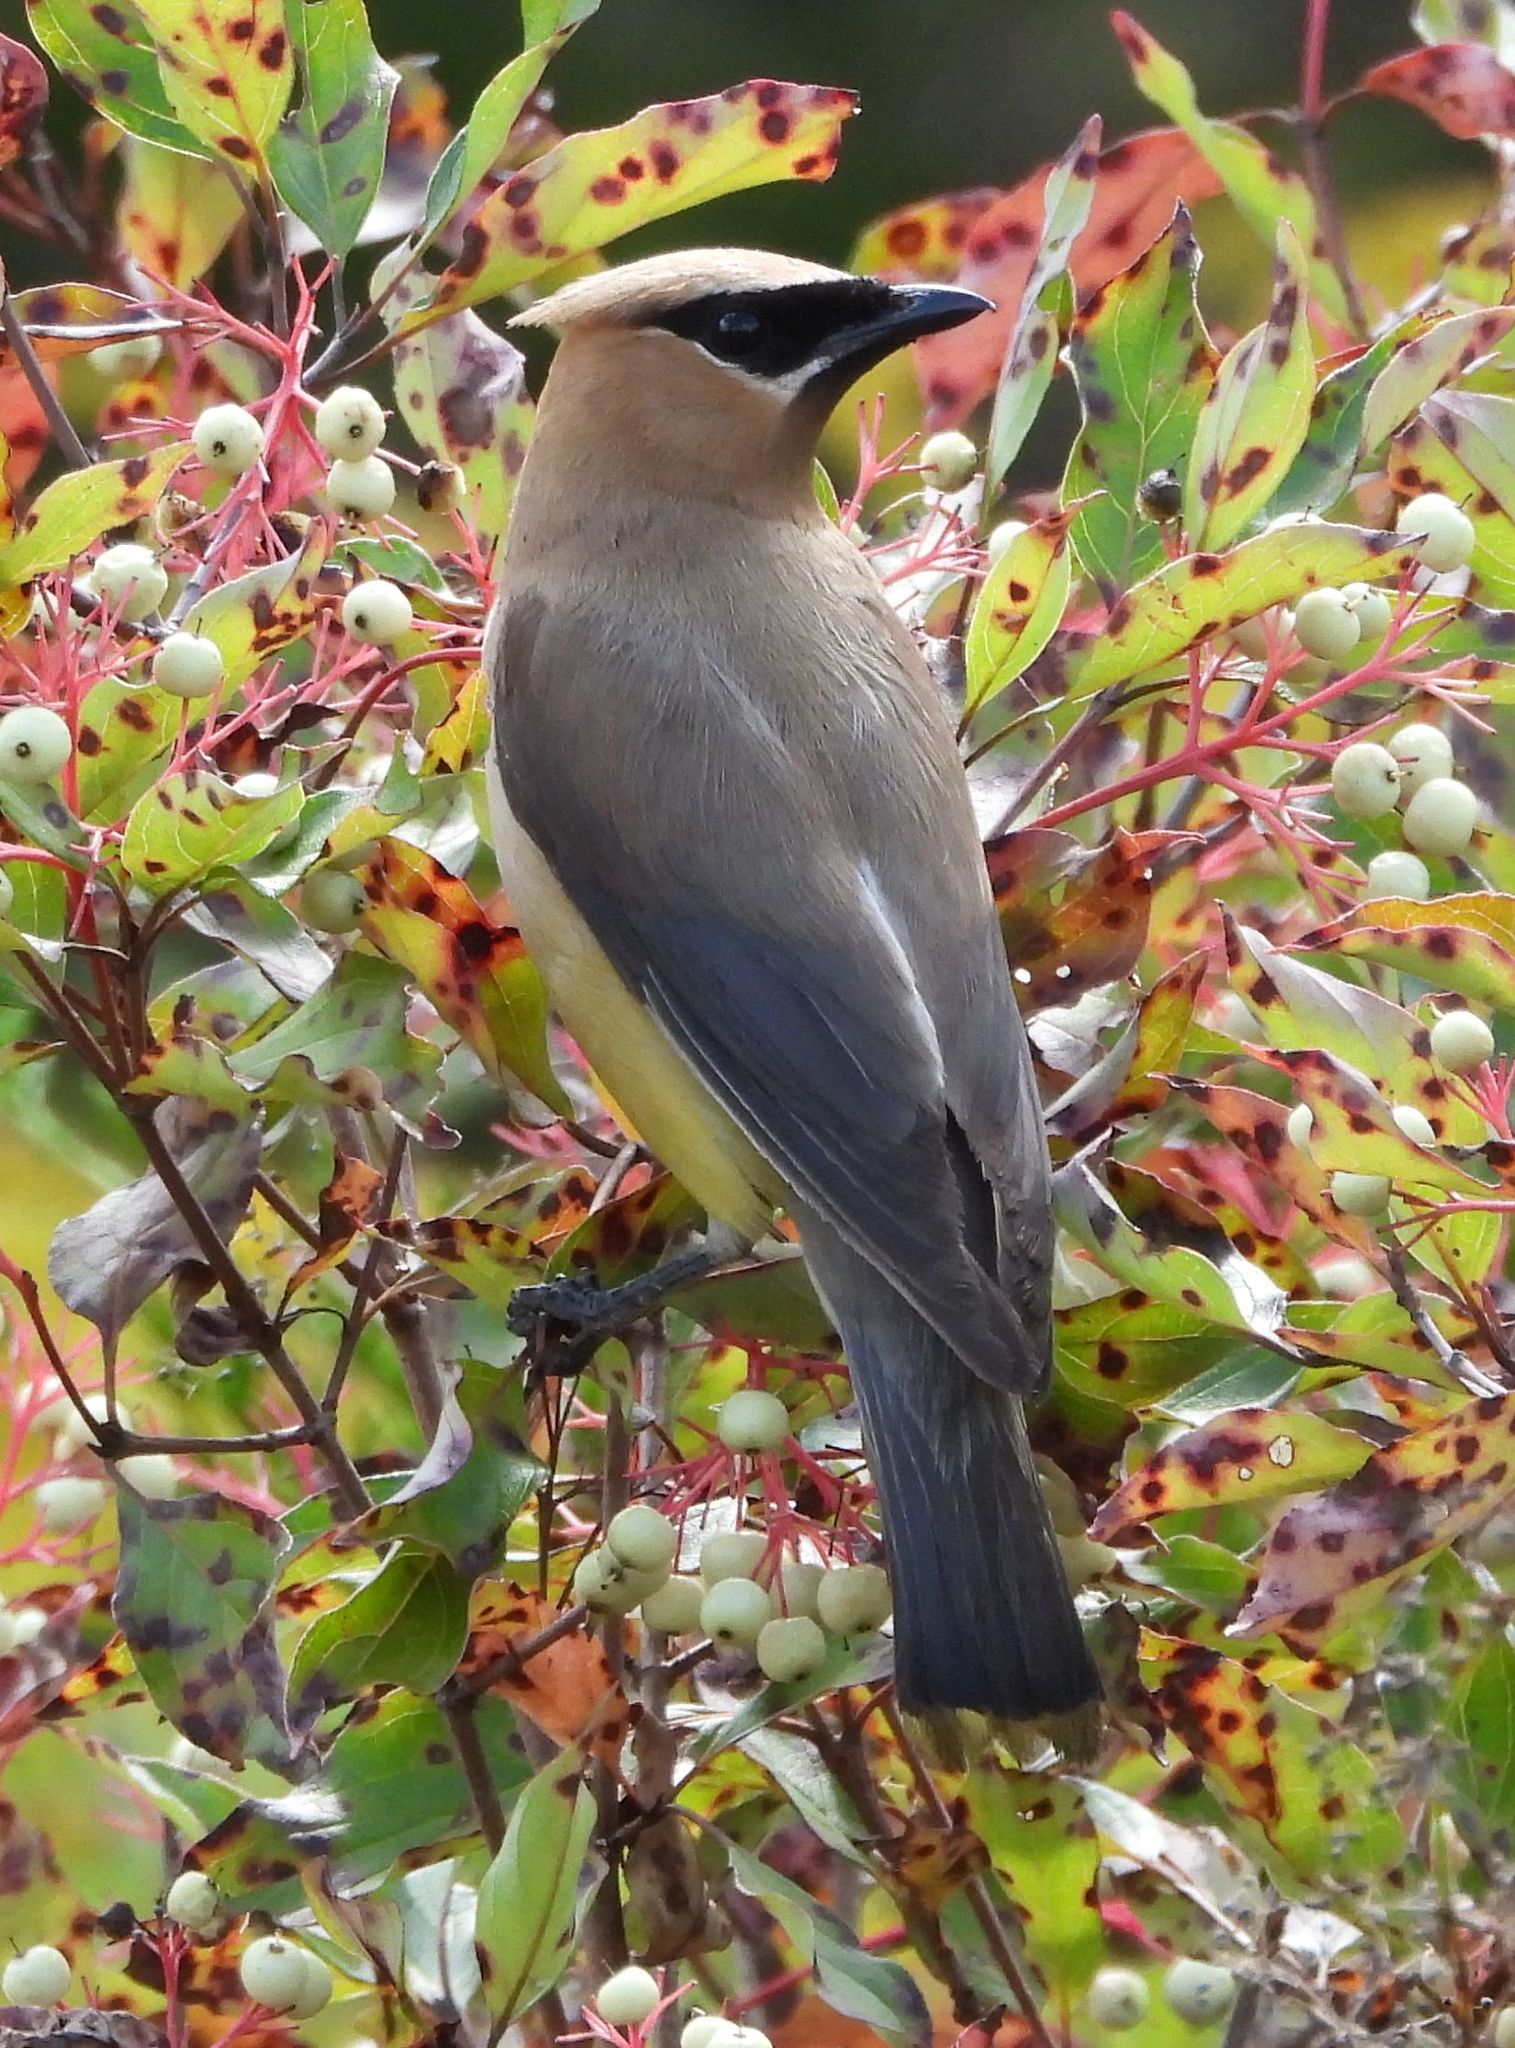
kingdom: Animalia
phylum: Chordata
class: Aves
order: Passeriformes
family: Bombycillidae
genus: Bombycilla
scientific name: Bombycilla cedrorum
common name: Cedar waxwing
